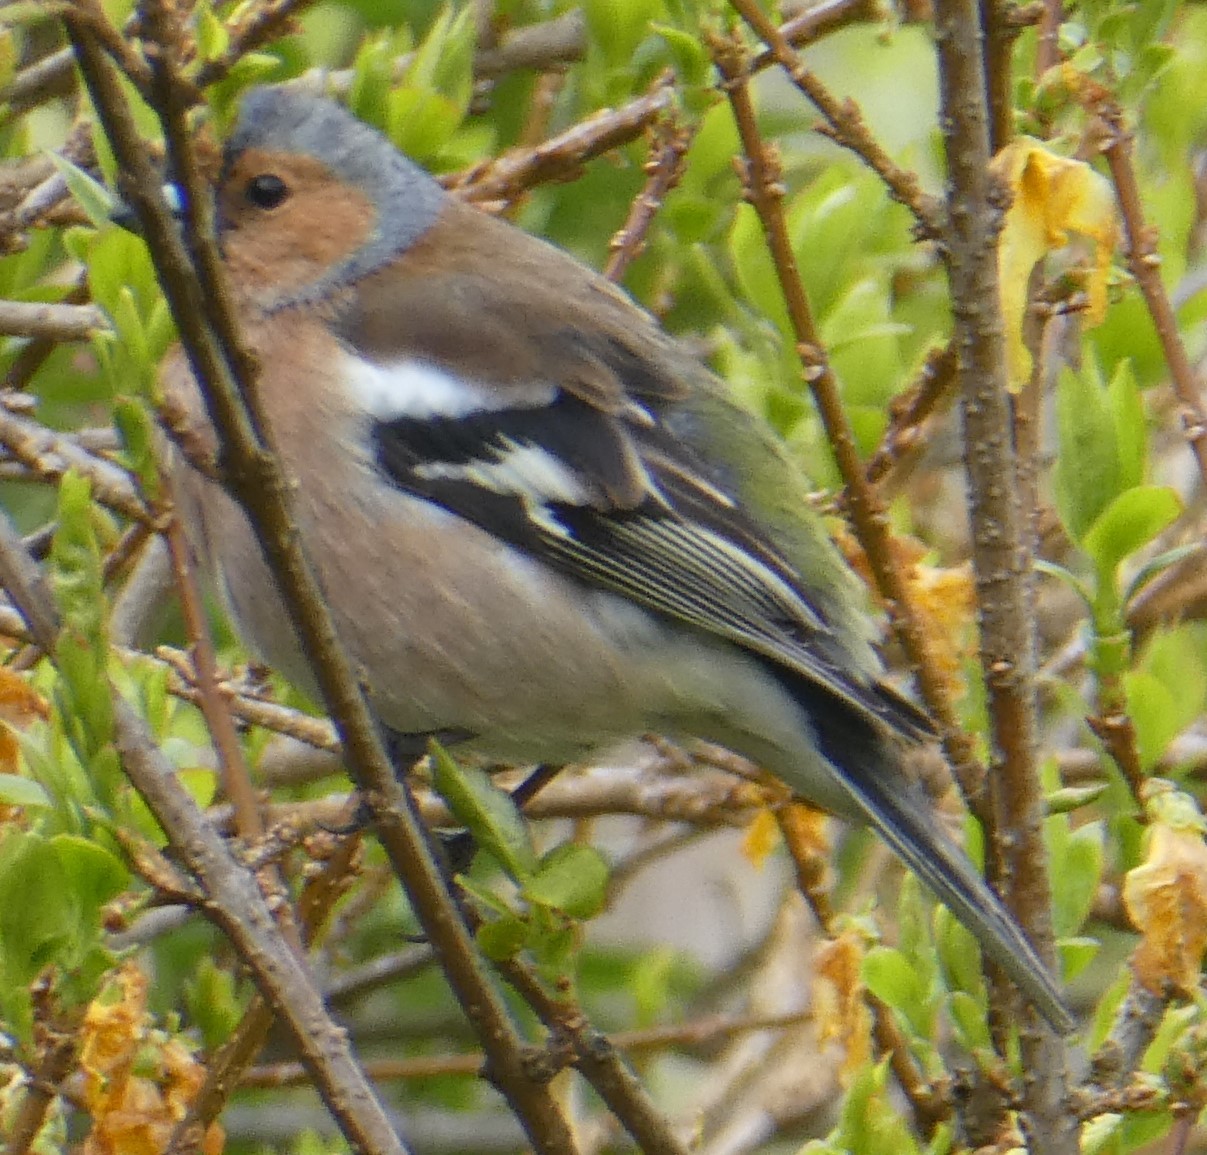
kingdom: Animalia
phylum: Chordata
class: Aves
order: Passeriformes
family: Fringillidae
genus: Fringilla
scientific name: Fringilla coelebs
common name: Common chaffinch
